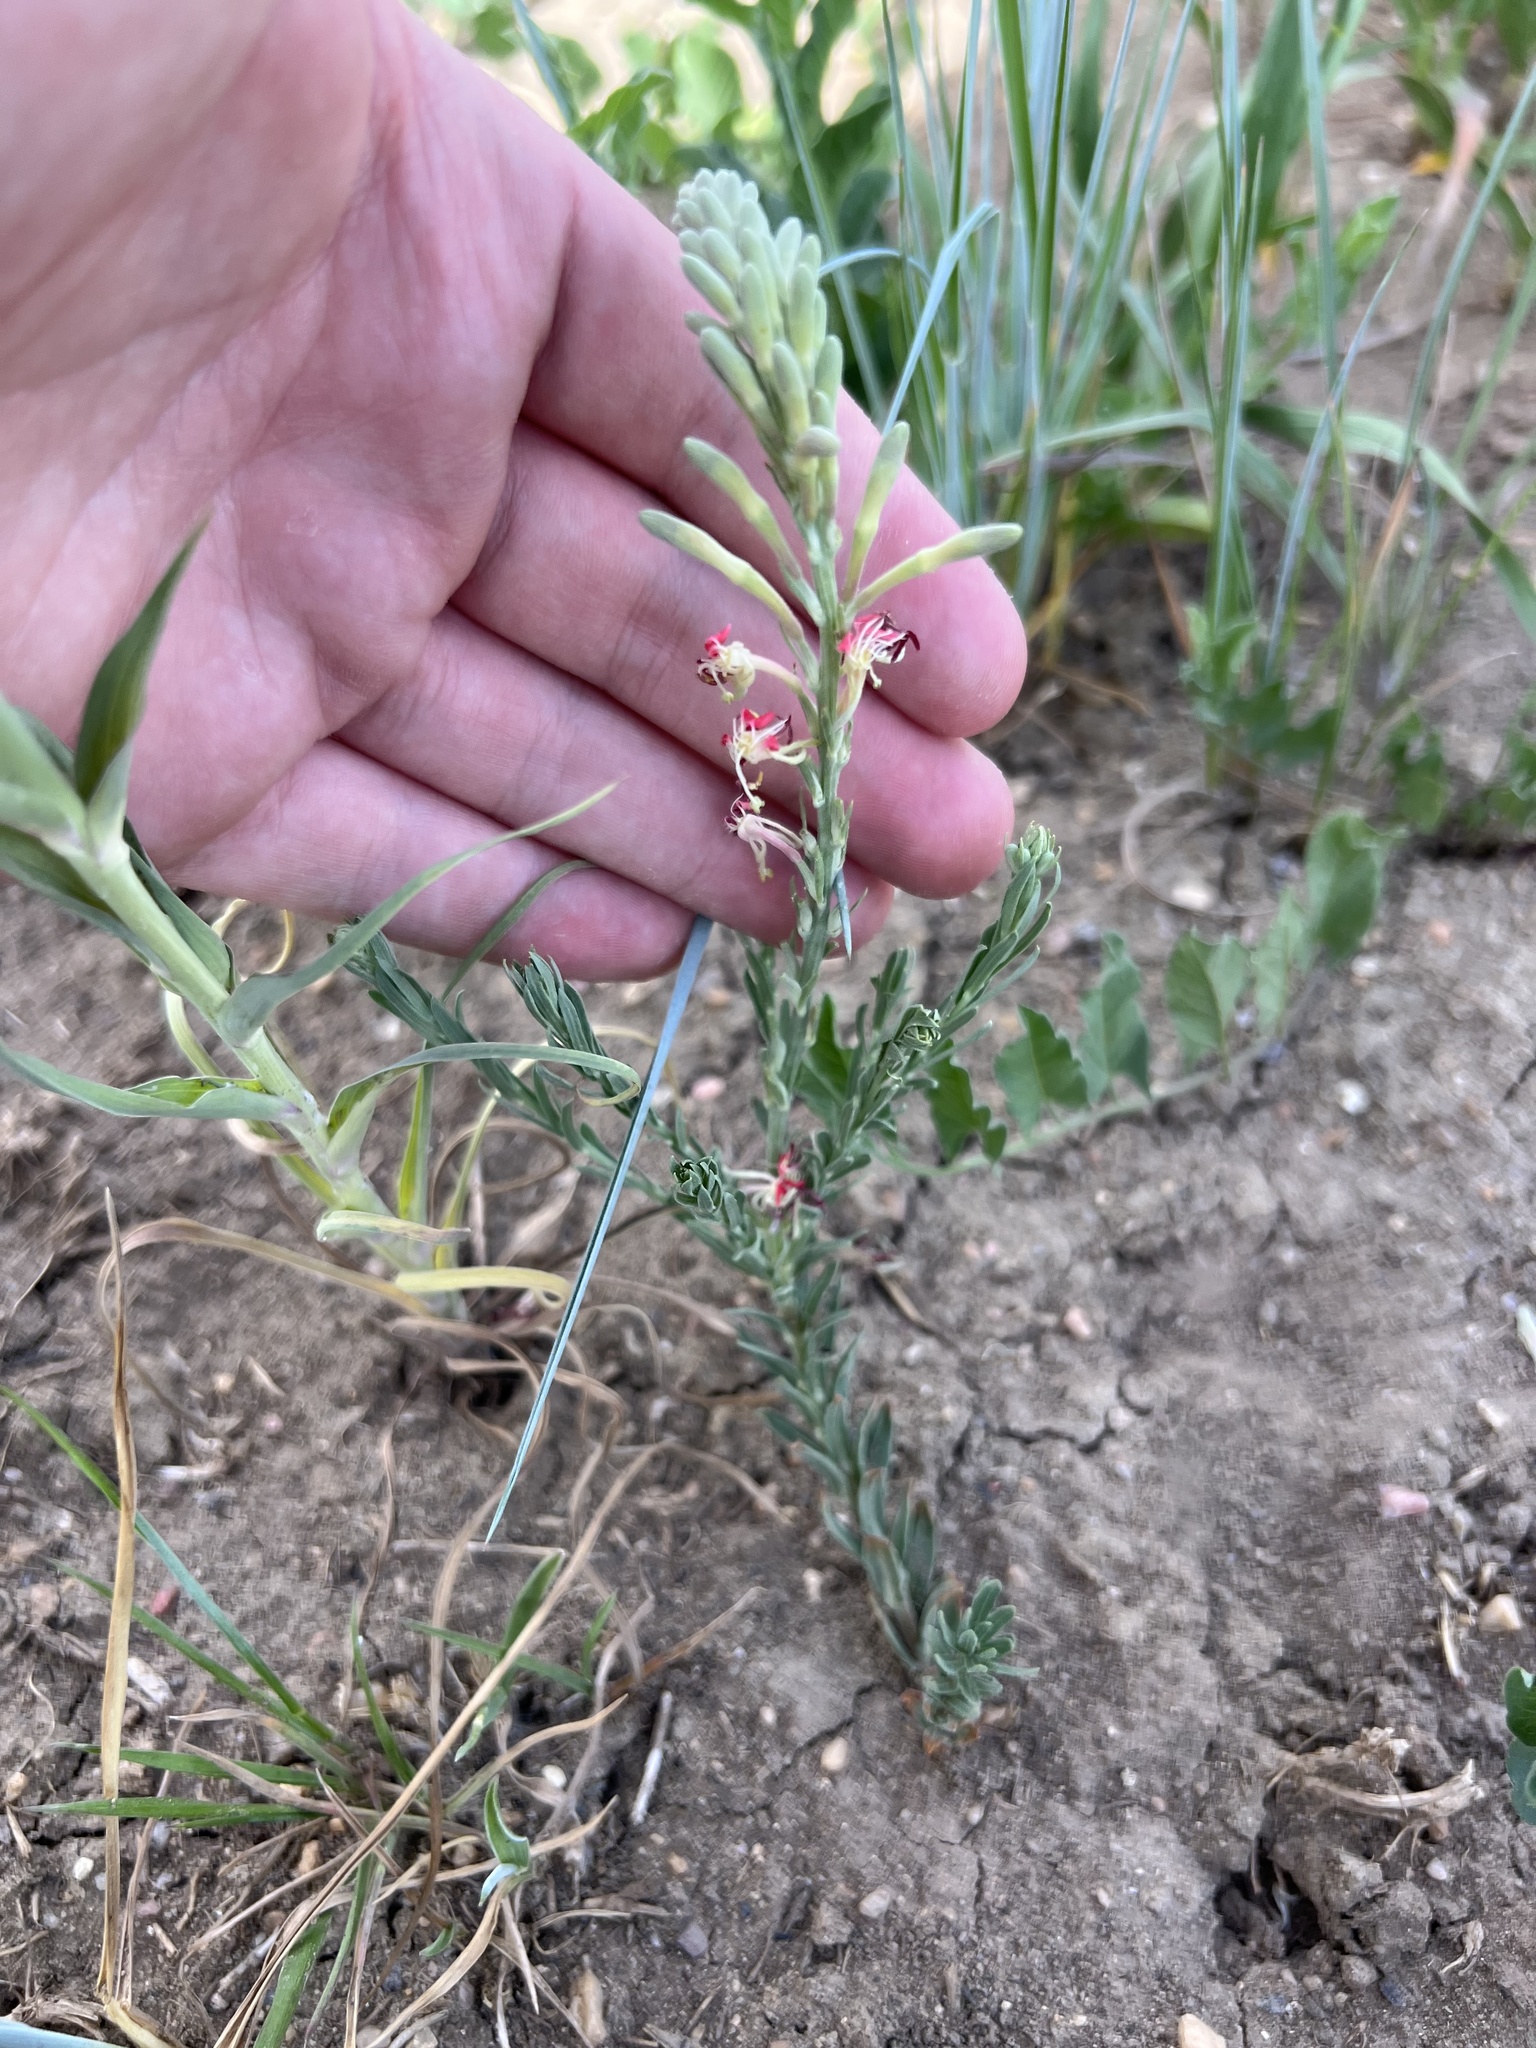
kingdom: Plantae
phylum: Tracheophyta
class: Magnoliopsida
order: Myrtales
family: Onagraceae
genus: Oenothera
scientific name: Oenothera suffrutescens
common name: Scarlet beeblossom
